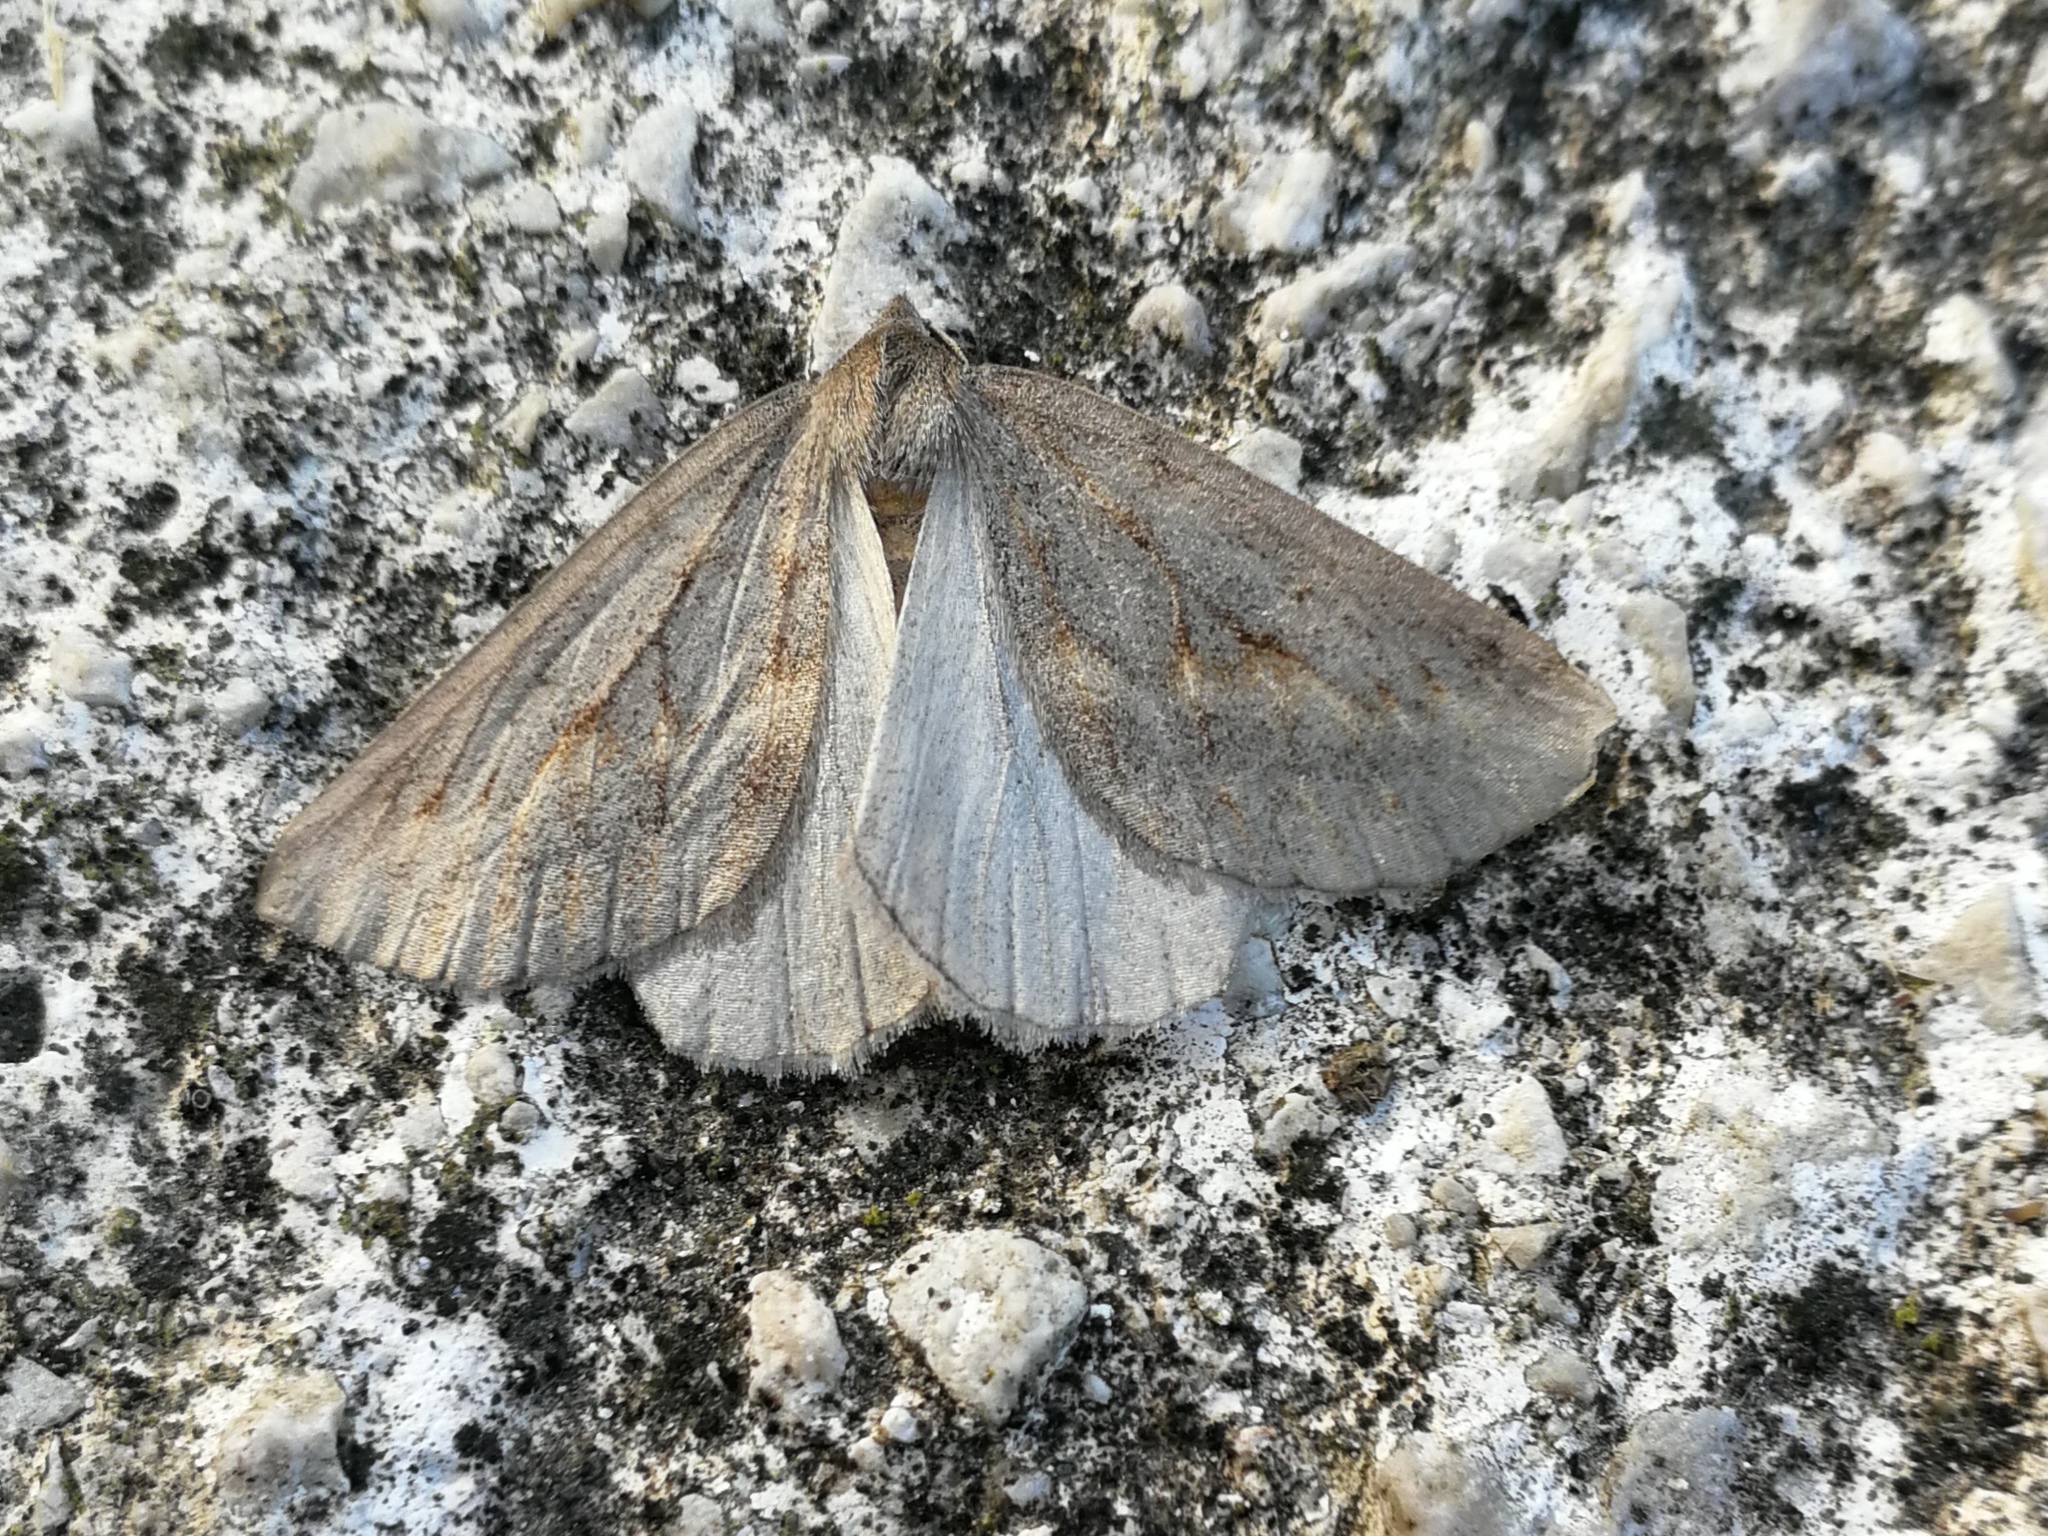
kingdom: Animalia
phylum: Arthropoda
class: Insecta
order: Lepidoptera
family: Geometridae
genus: Chemerina
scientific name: Chemerina caliginearia
